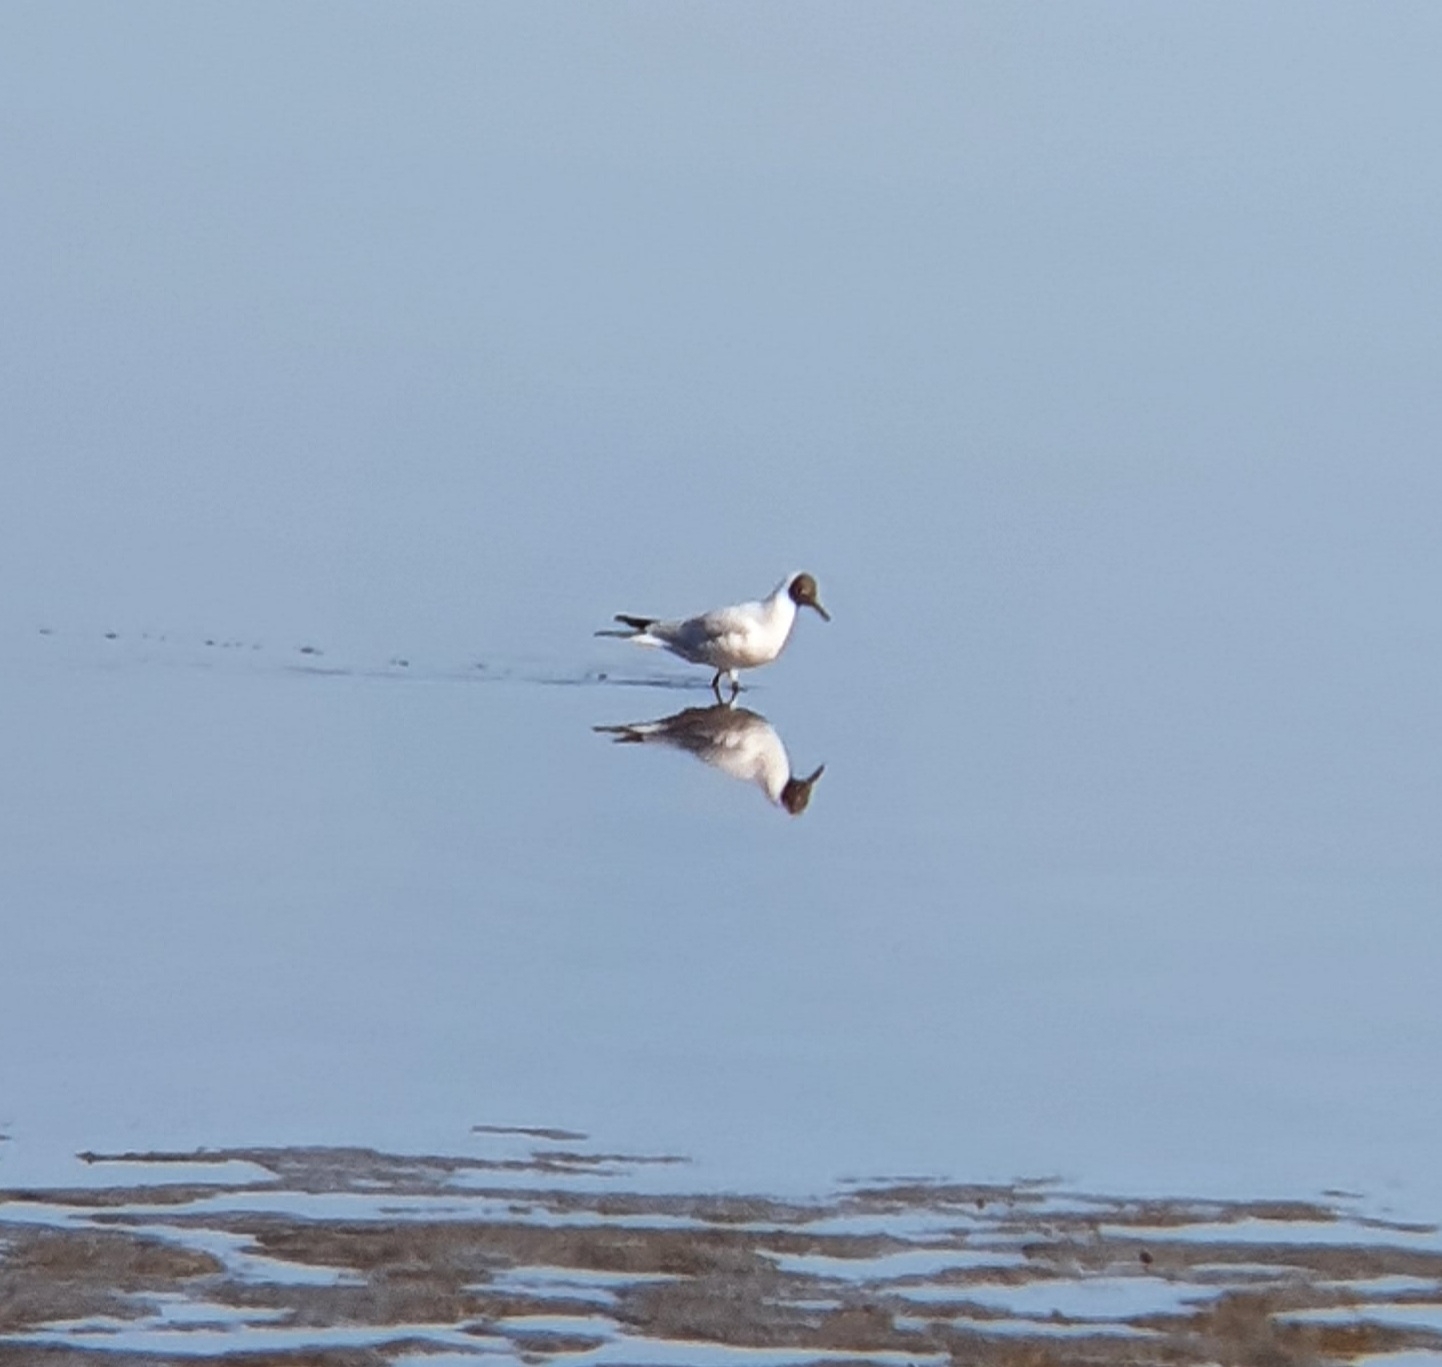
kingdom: Animalia
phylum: Chordata
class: Aves
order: Charadriiformes
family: Laridae
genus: Chroicocephalus
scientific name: Chroicocephalus ridibundus
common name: Black-headed gull
